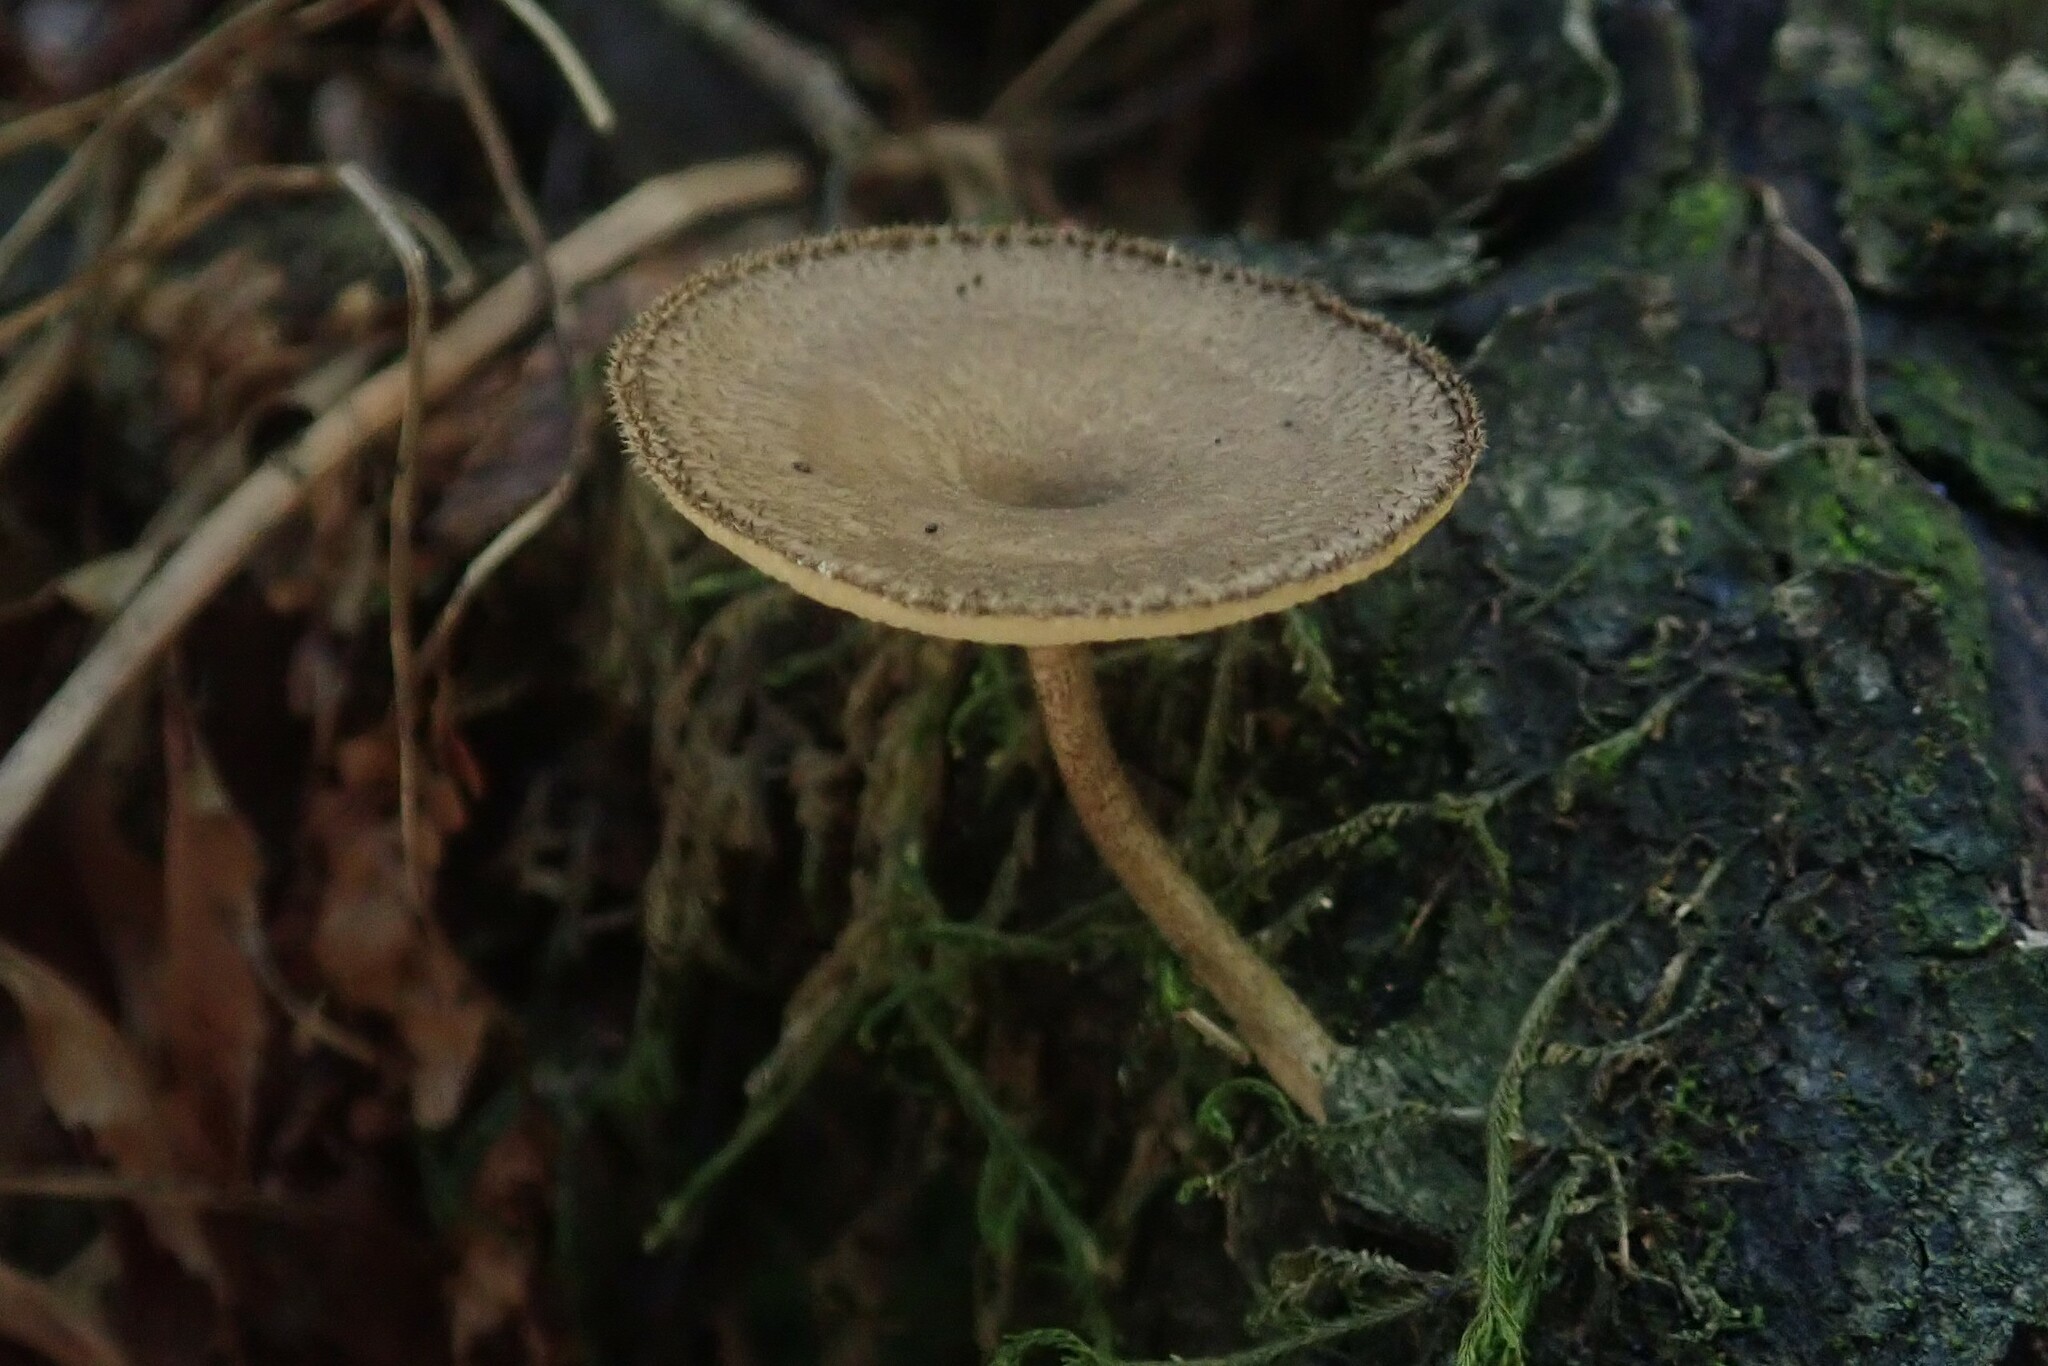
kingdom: Fungi
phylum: Basidiomycota
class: Agaricomycetes
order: Polyporales
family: Polyporaceae
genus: Lentinus
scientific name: Lentinus arcularius
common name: Spring polypore
